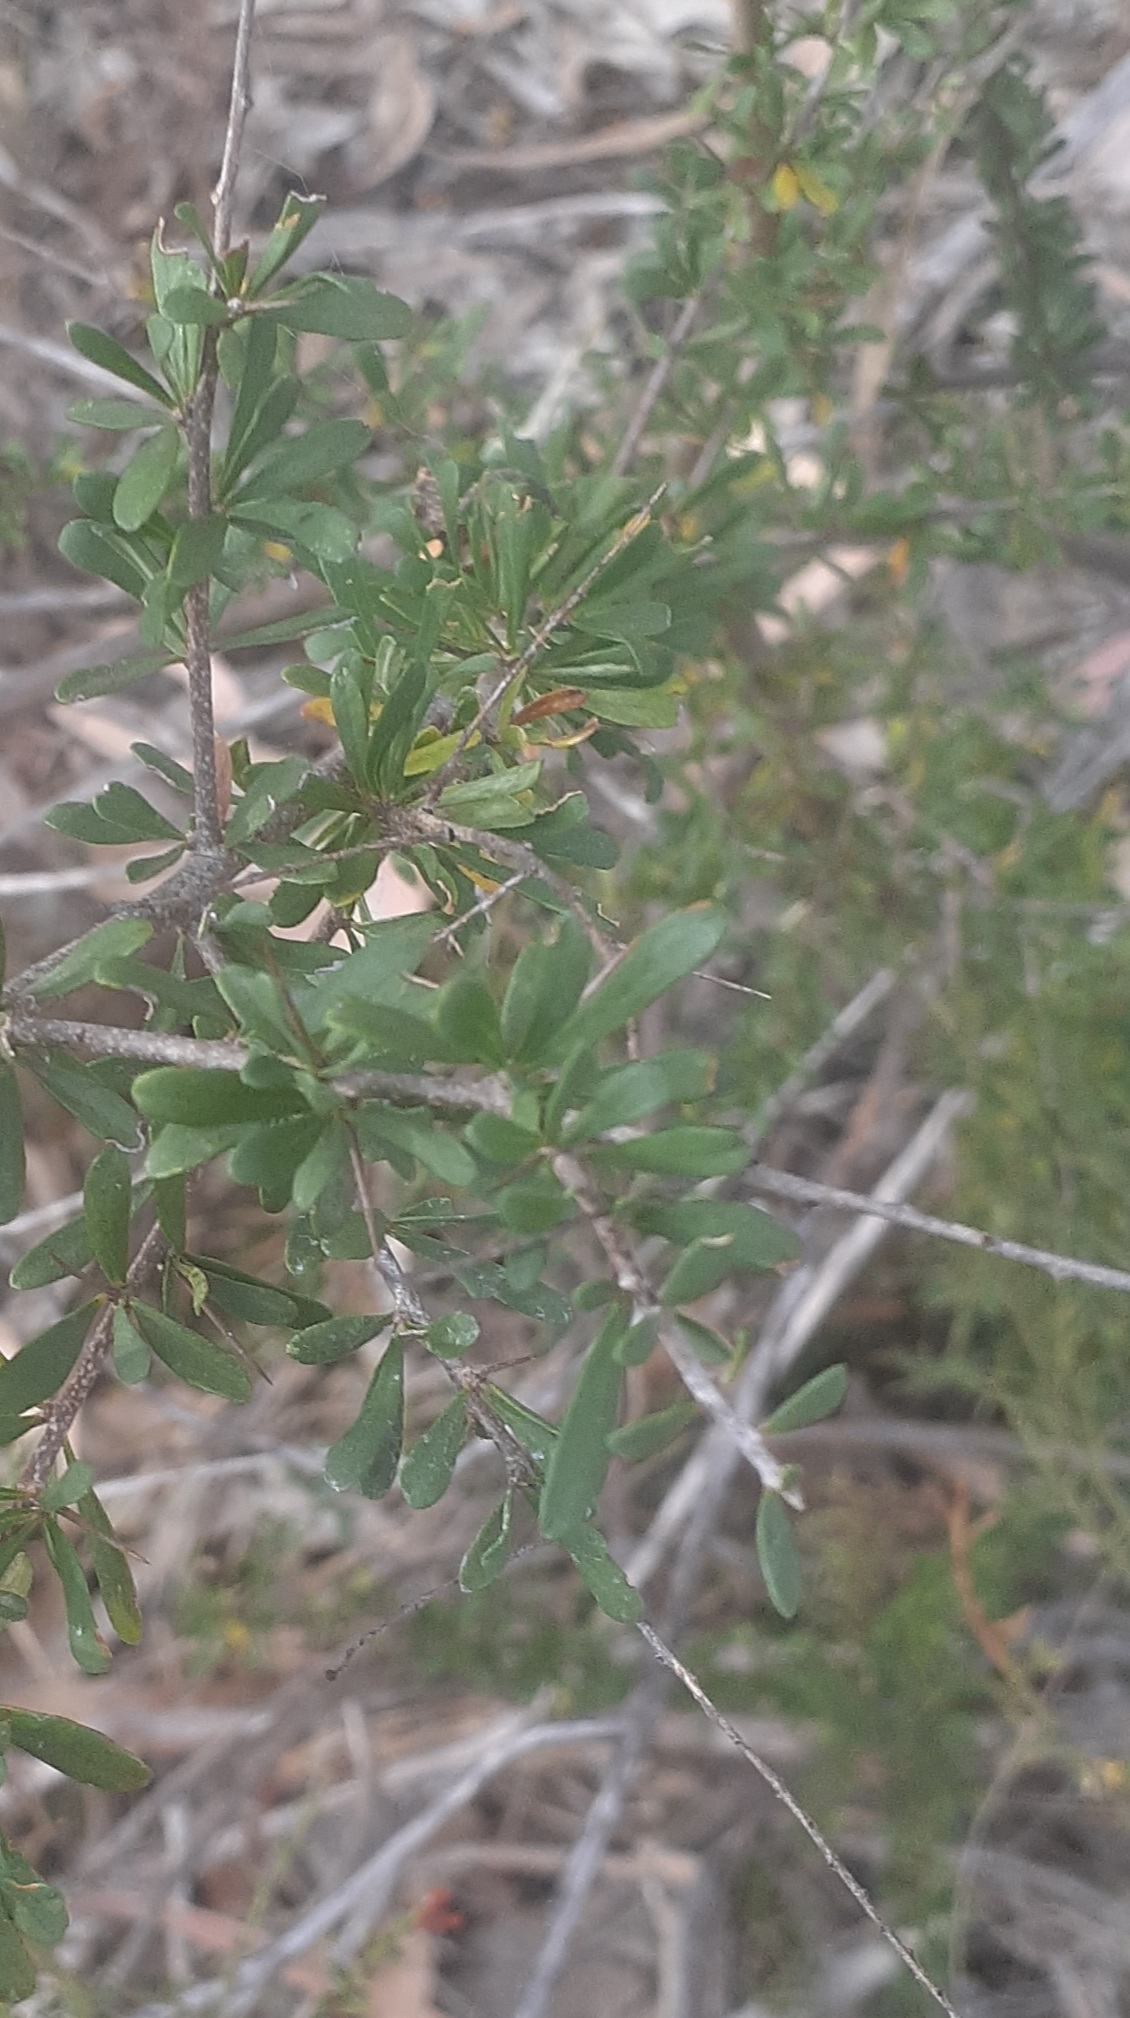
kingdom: Plantae
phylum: Tracheophyta
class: Magnoliopsida
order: Apiales
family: Pittosporaceae
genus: Bursaria
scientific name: Bursaria spinosa
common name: Australian blackthorn
